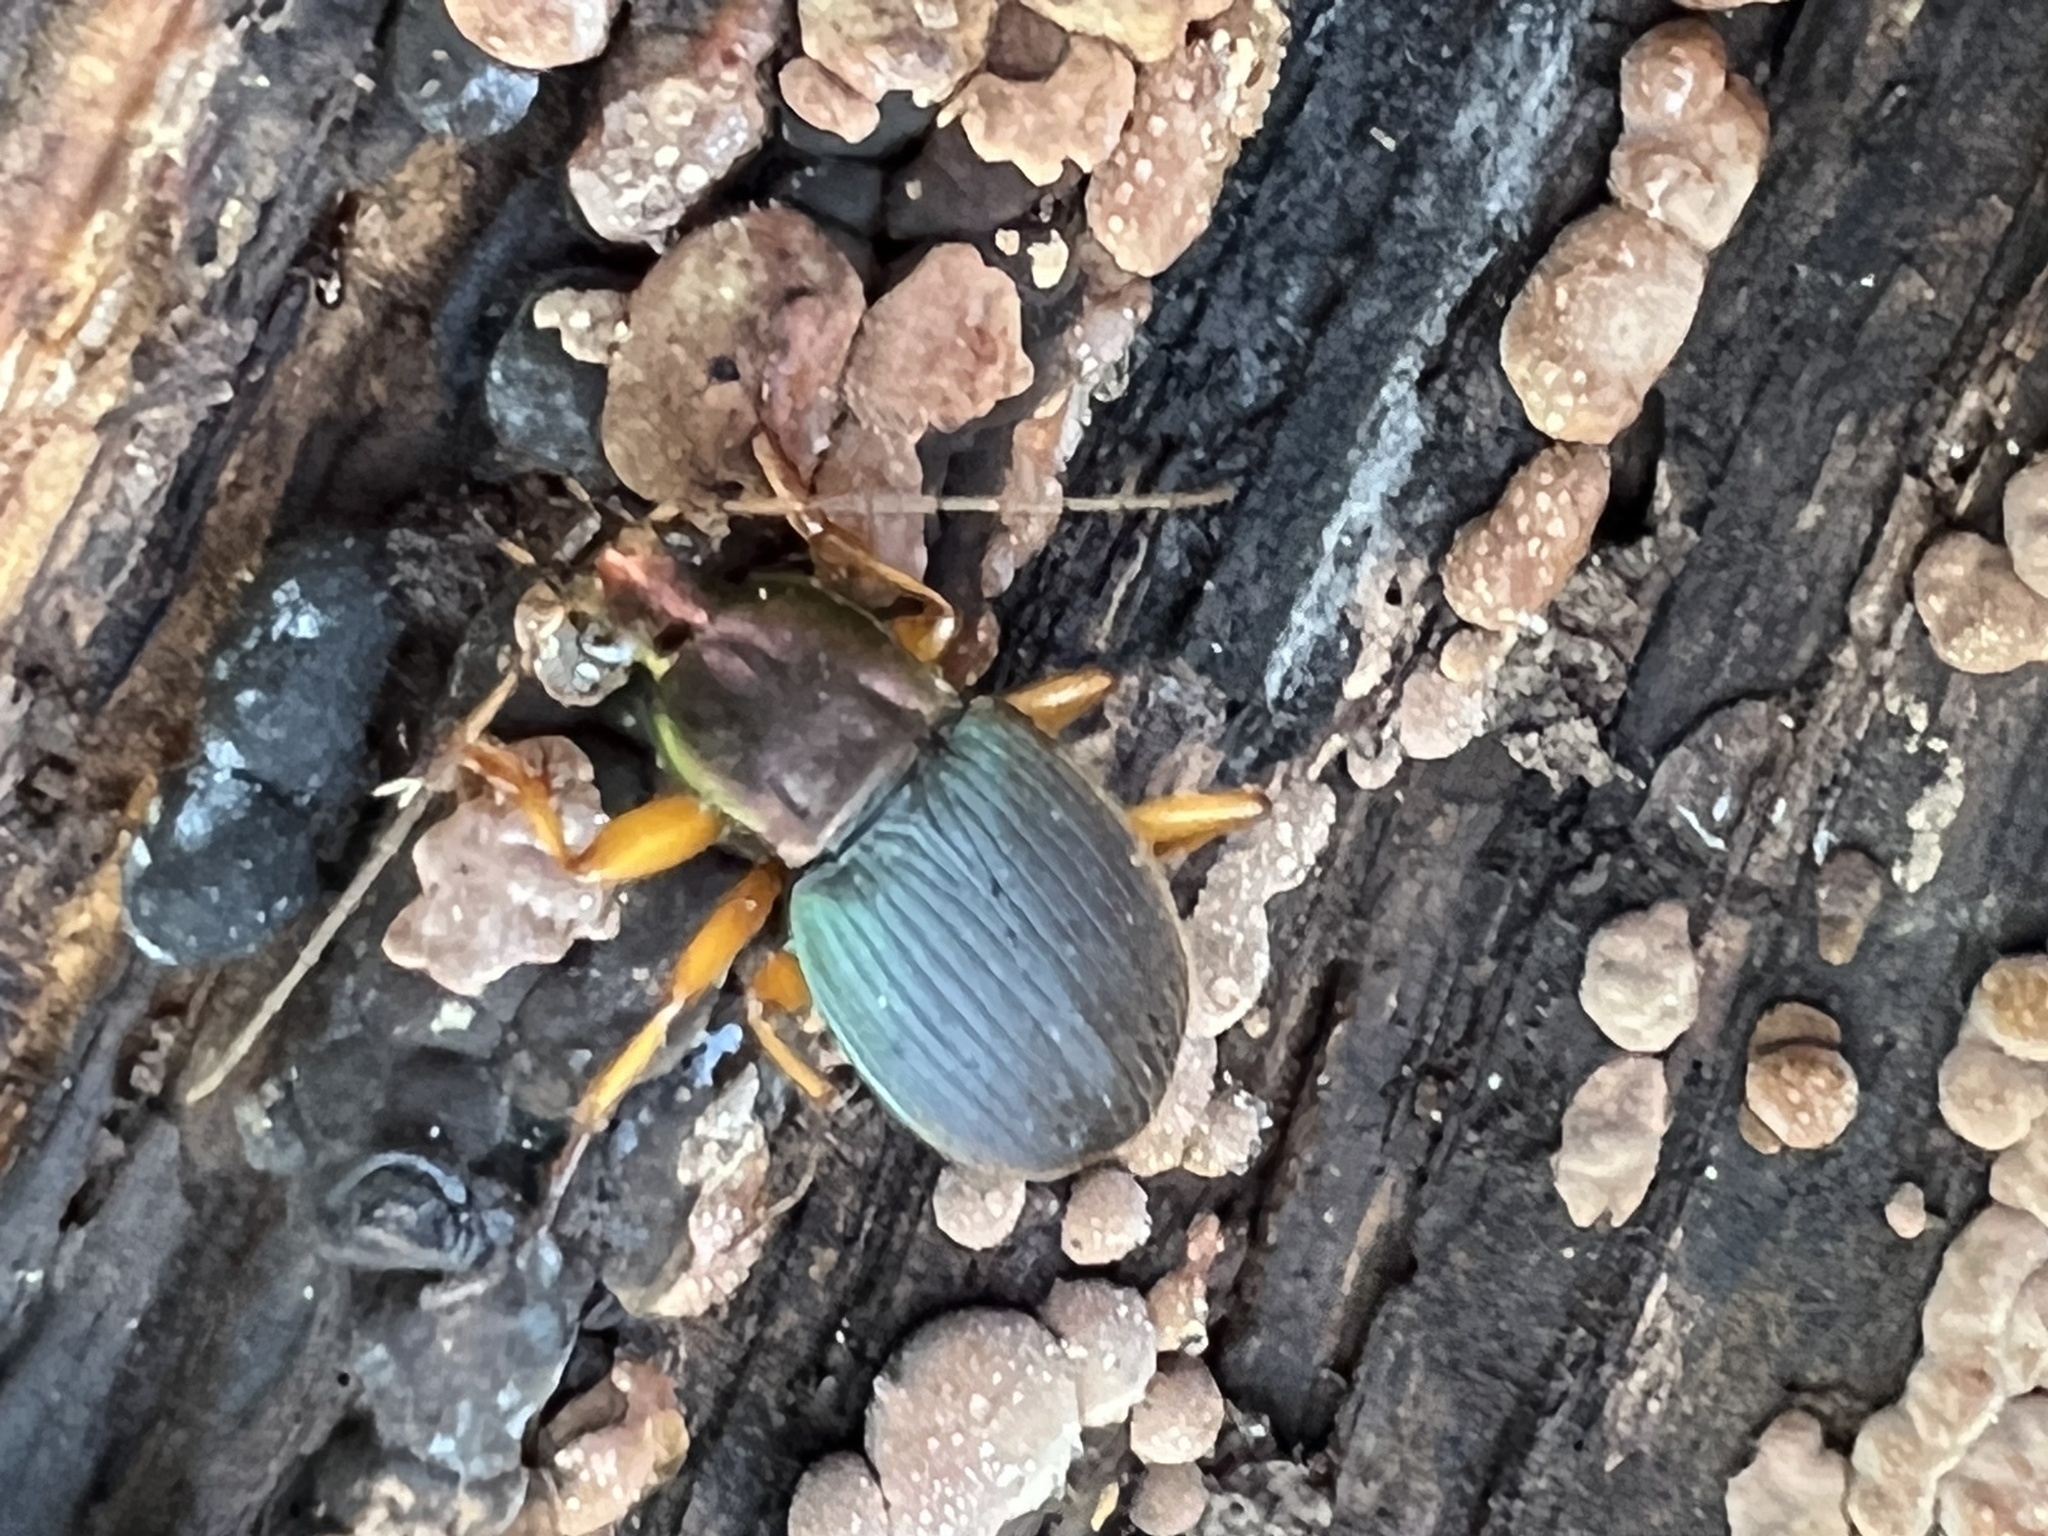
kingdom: Animalia
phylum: Arthropoda
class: Insecta
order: Coleoptera
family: Carabidae
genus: Chlaenius
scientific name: Chlaenius aestivus
